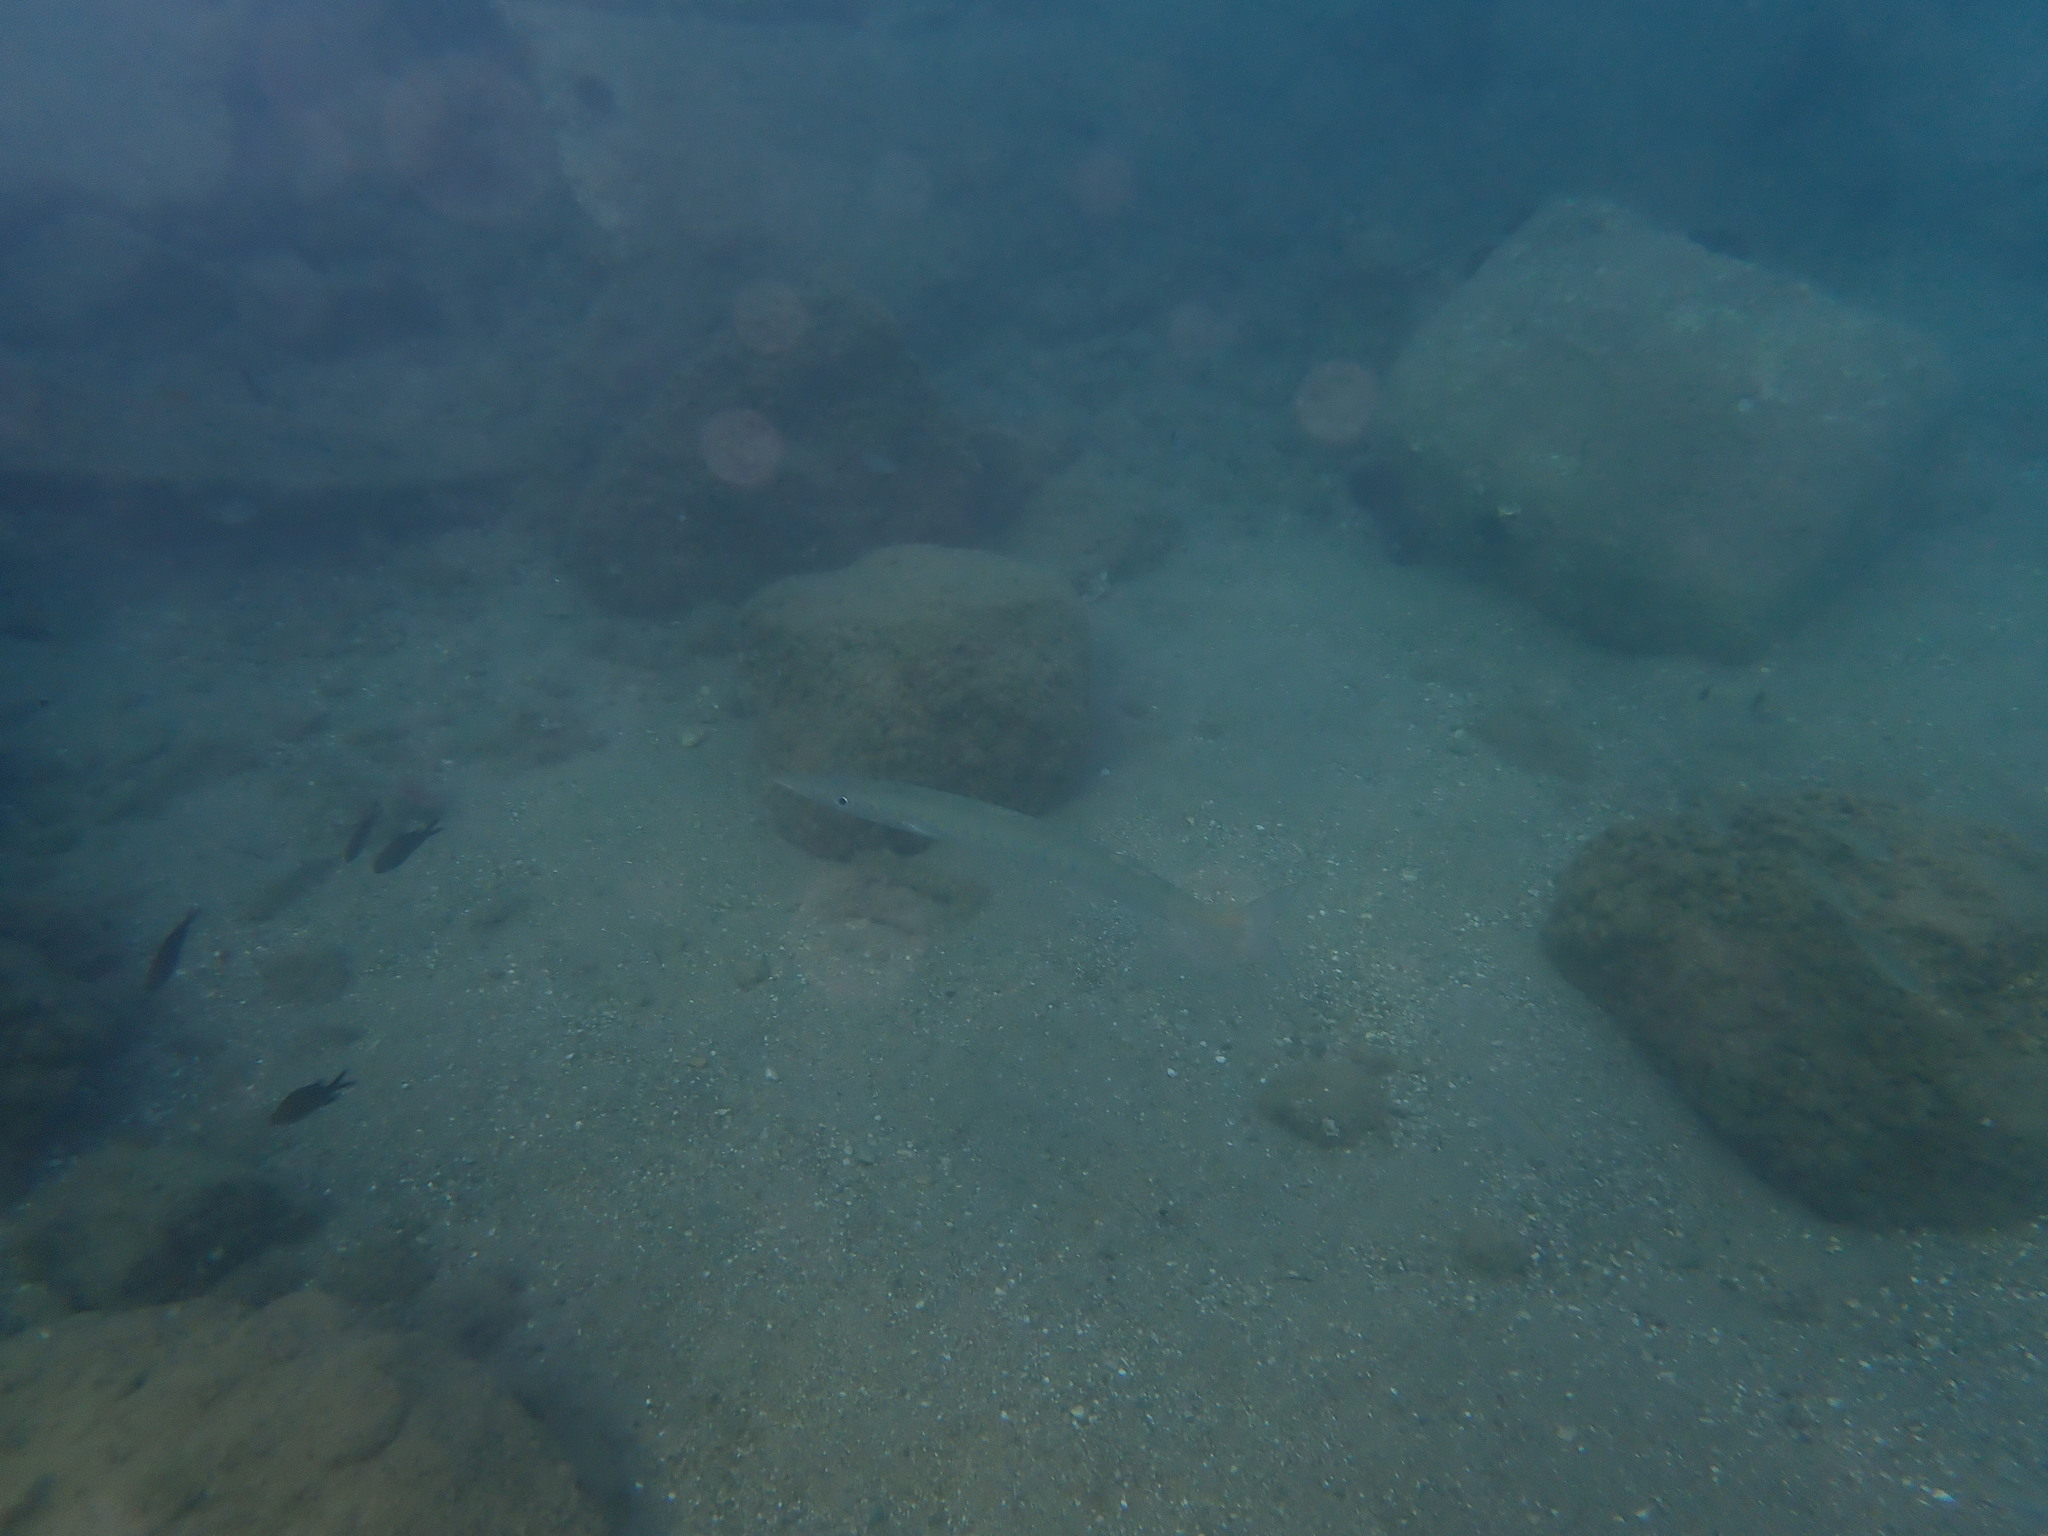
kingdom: Animalia
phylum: Chordata
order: Perciformes
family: Sphyraenidae
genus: Sphyraena
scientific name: Sphyraena
